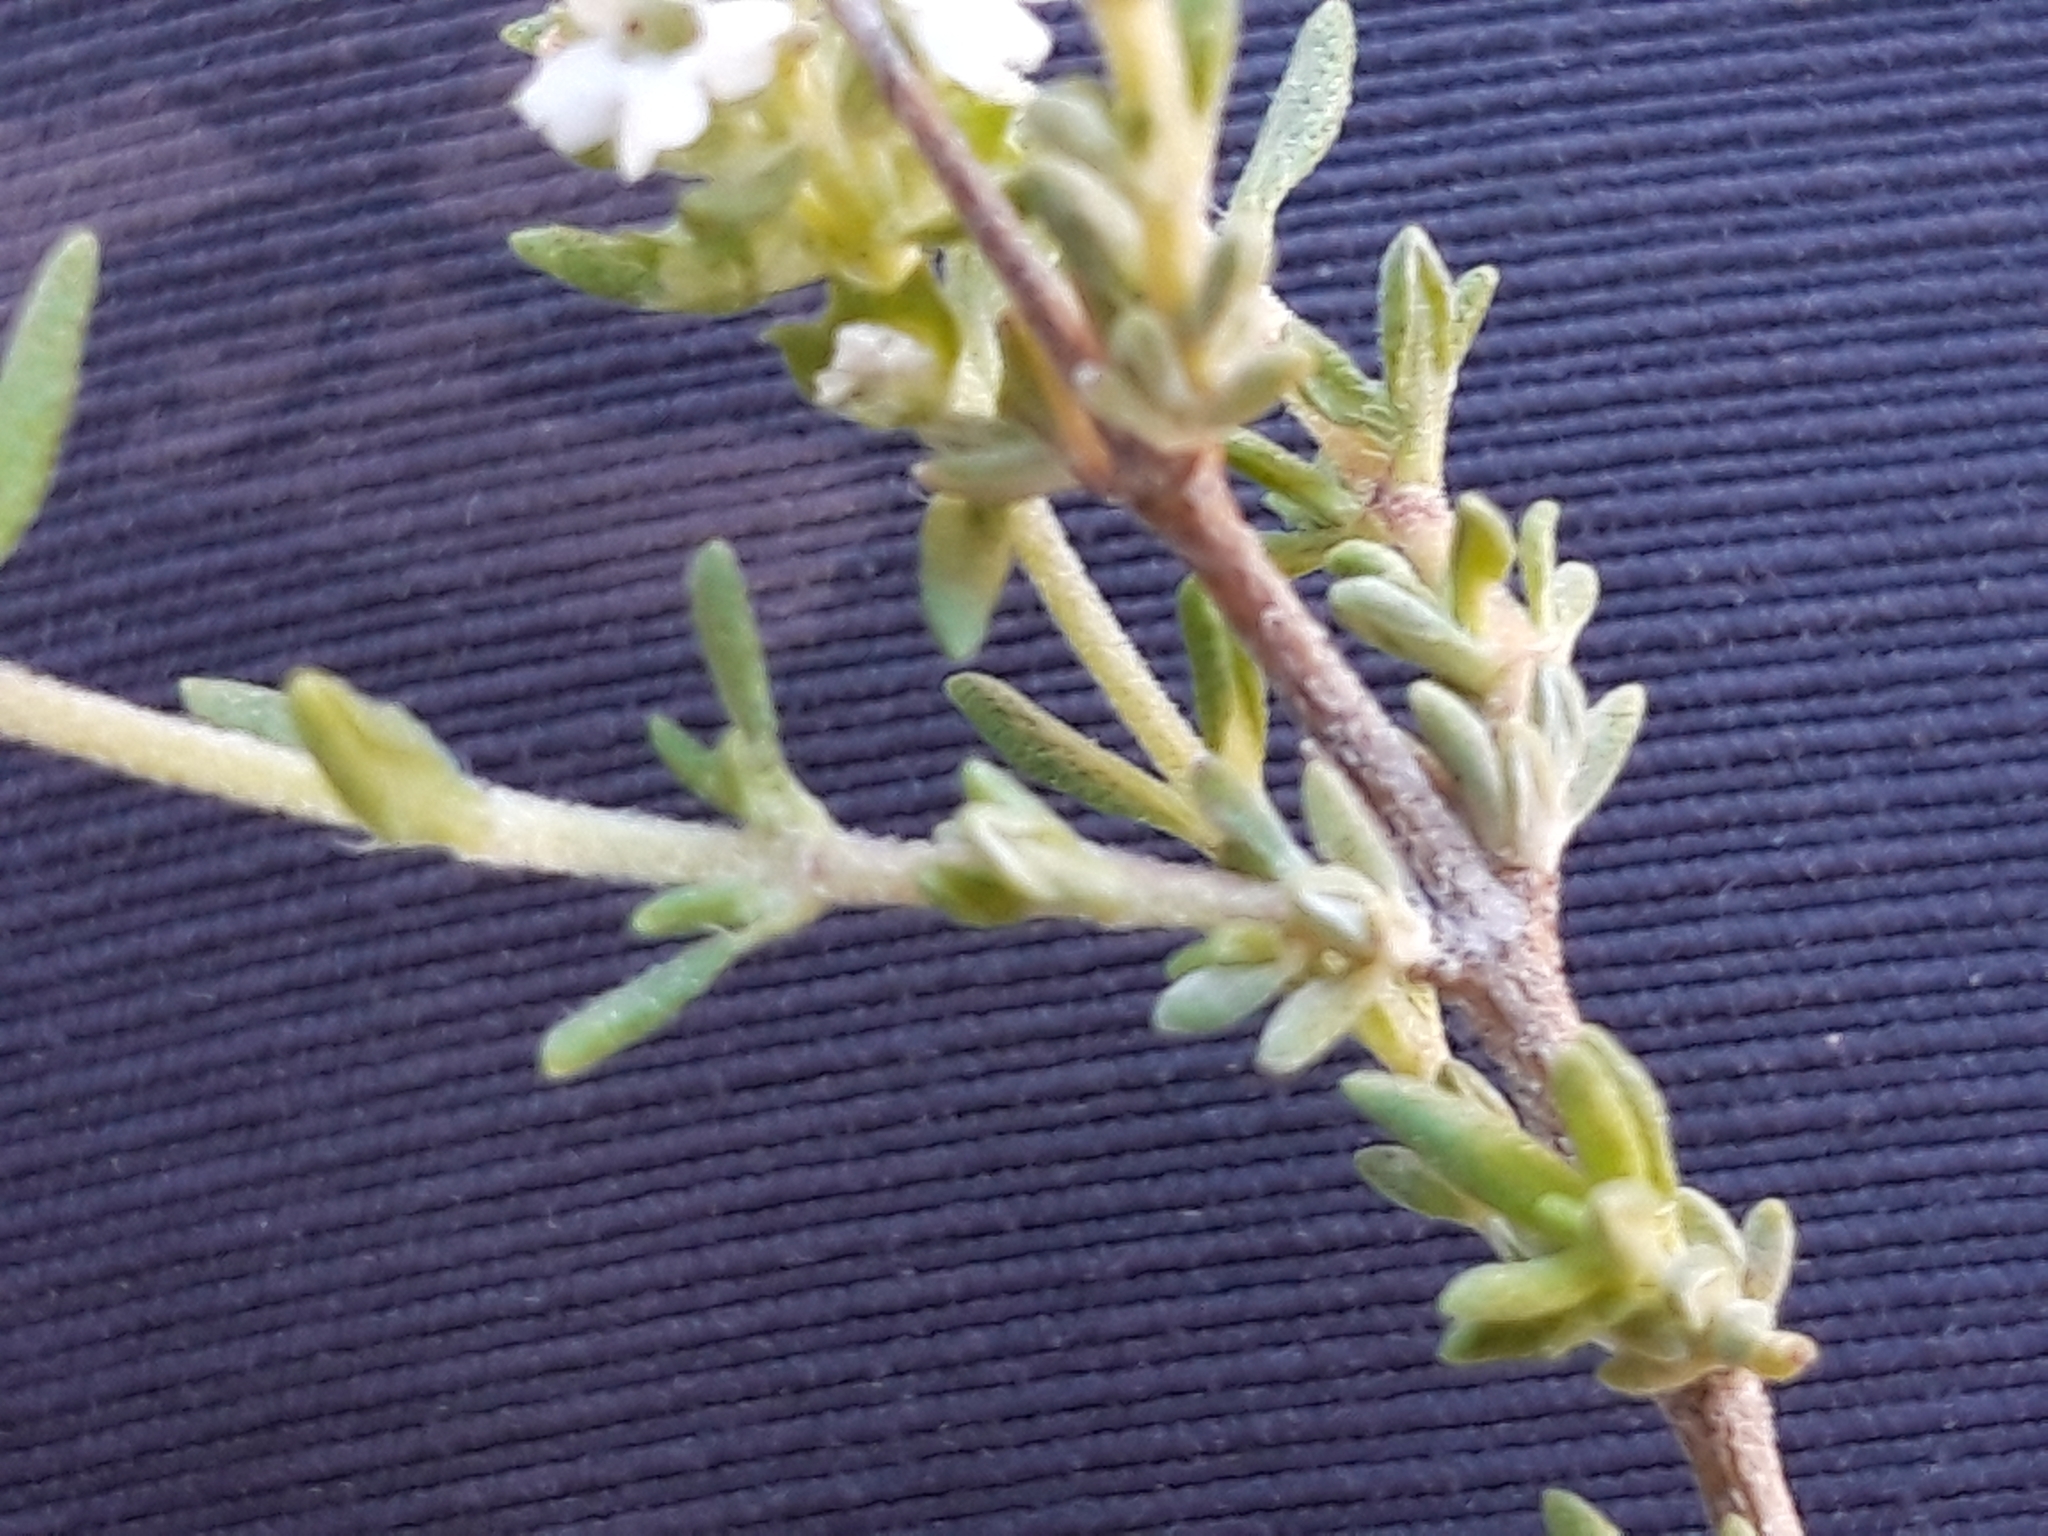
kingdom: Plantae
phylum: Tracheophyta
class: Magnoliopsida
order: Lamiales
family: Lamiaceae
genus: Thymus
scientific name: Thymus zygis
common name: White thyme
